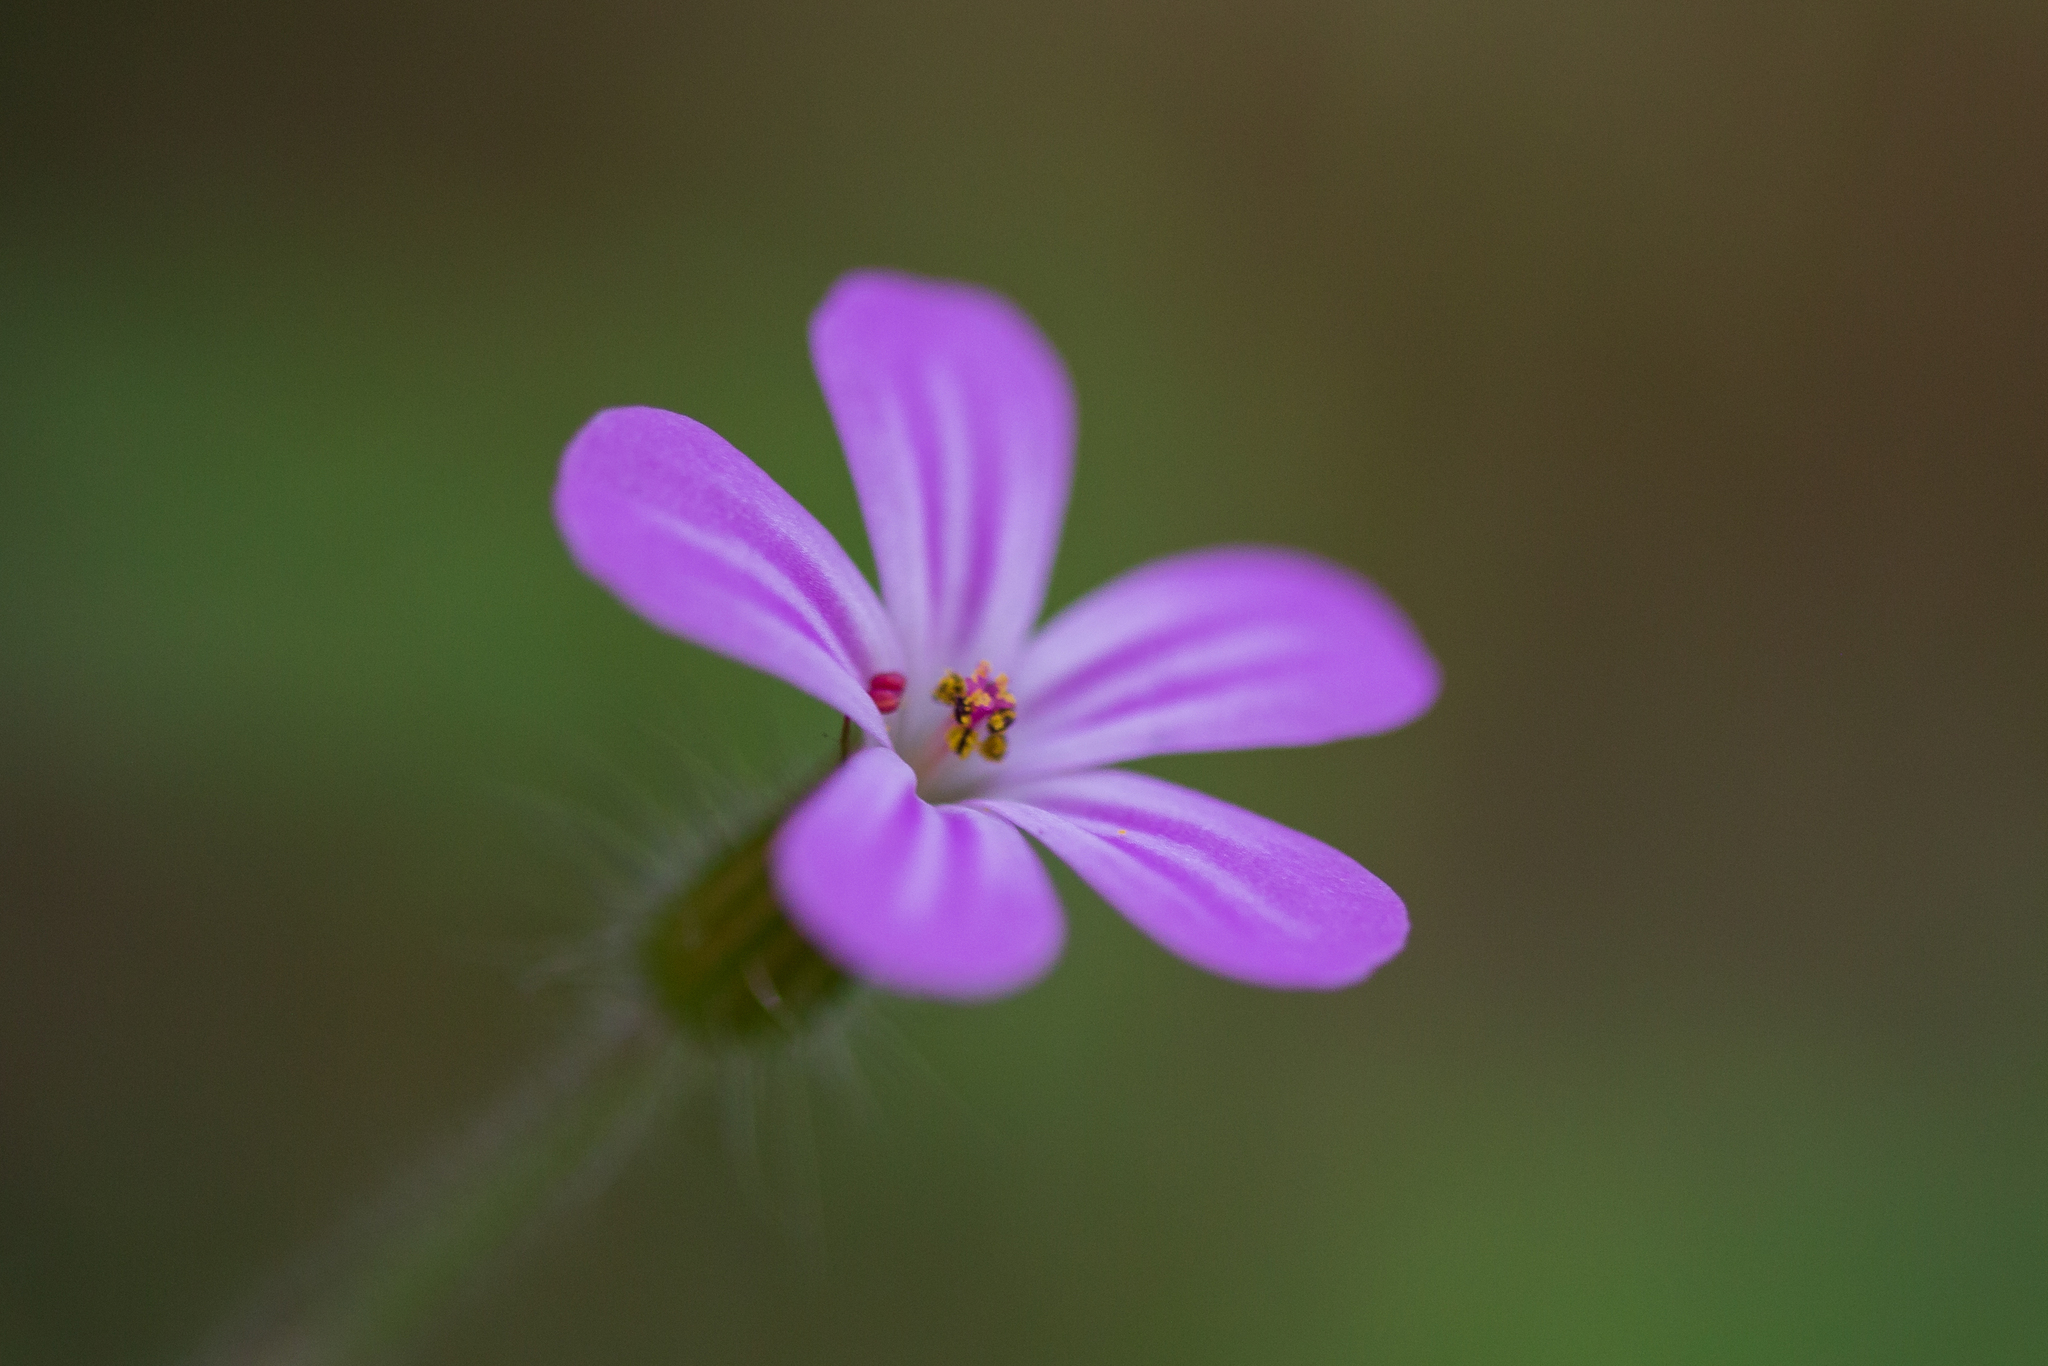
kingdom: Plantae
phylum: Tracheophyta
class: Magnoliopsida
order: Geraniales
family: Geraniaceae
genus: Geranium
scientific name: Geranium robertianum
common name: Herb-robert
